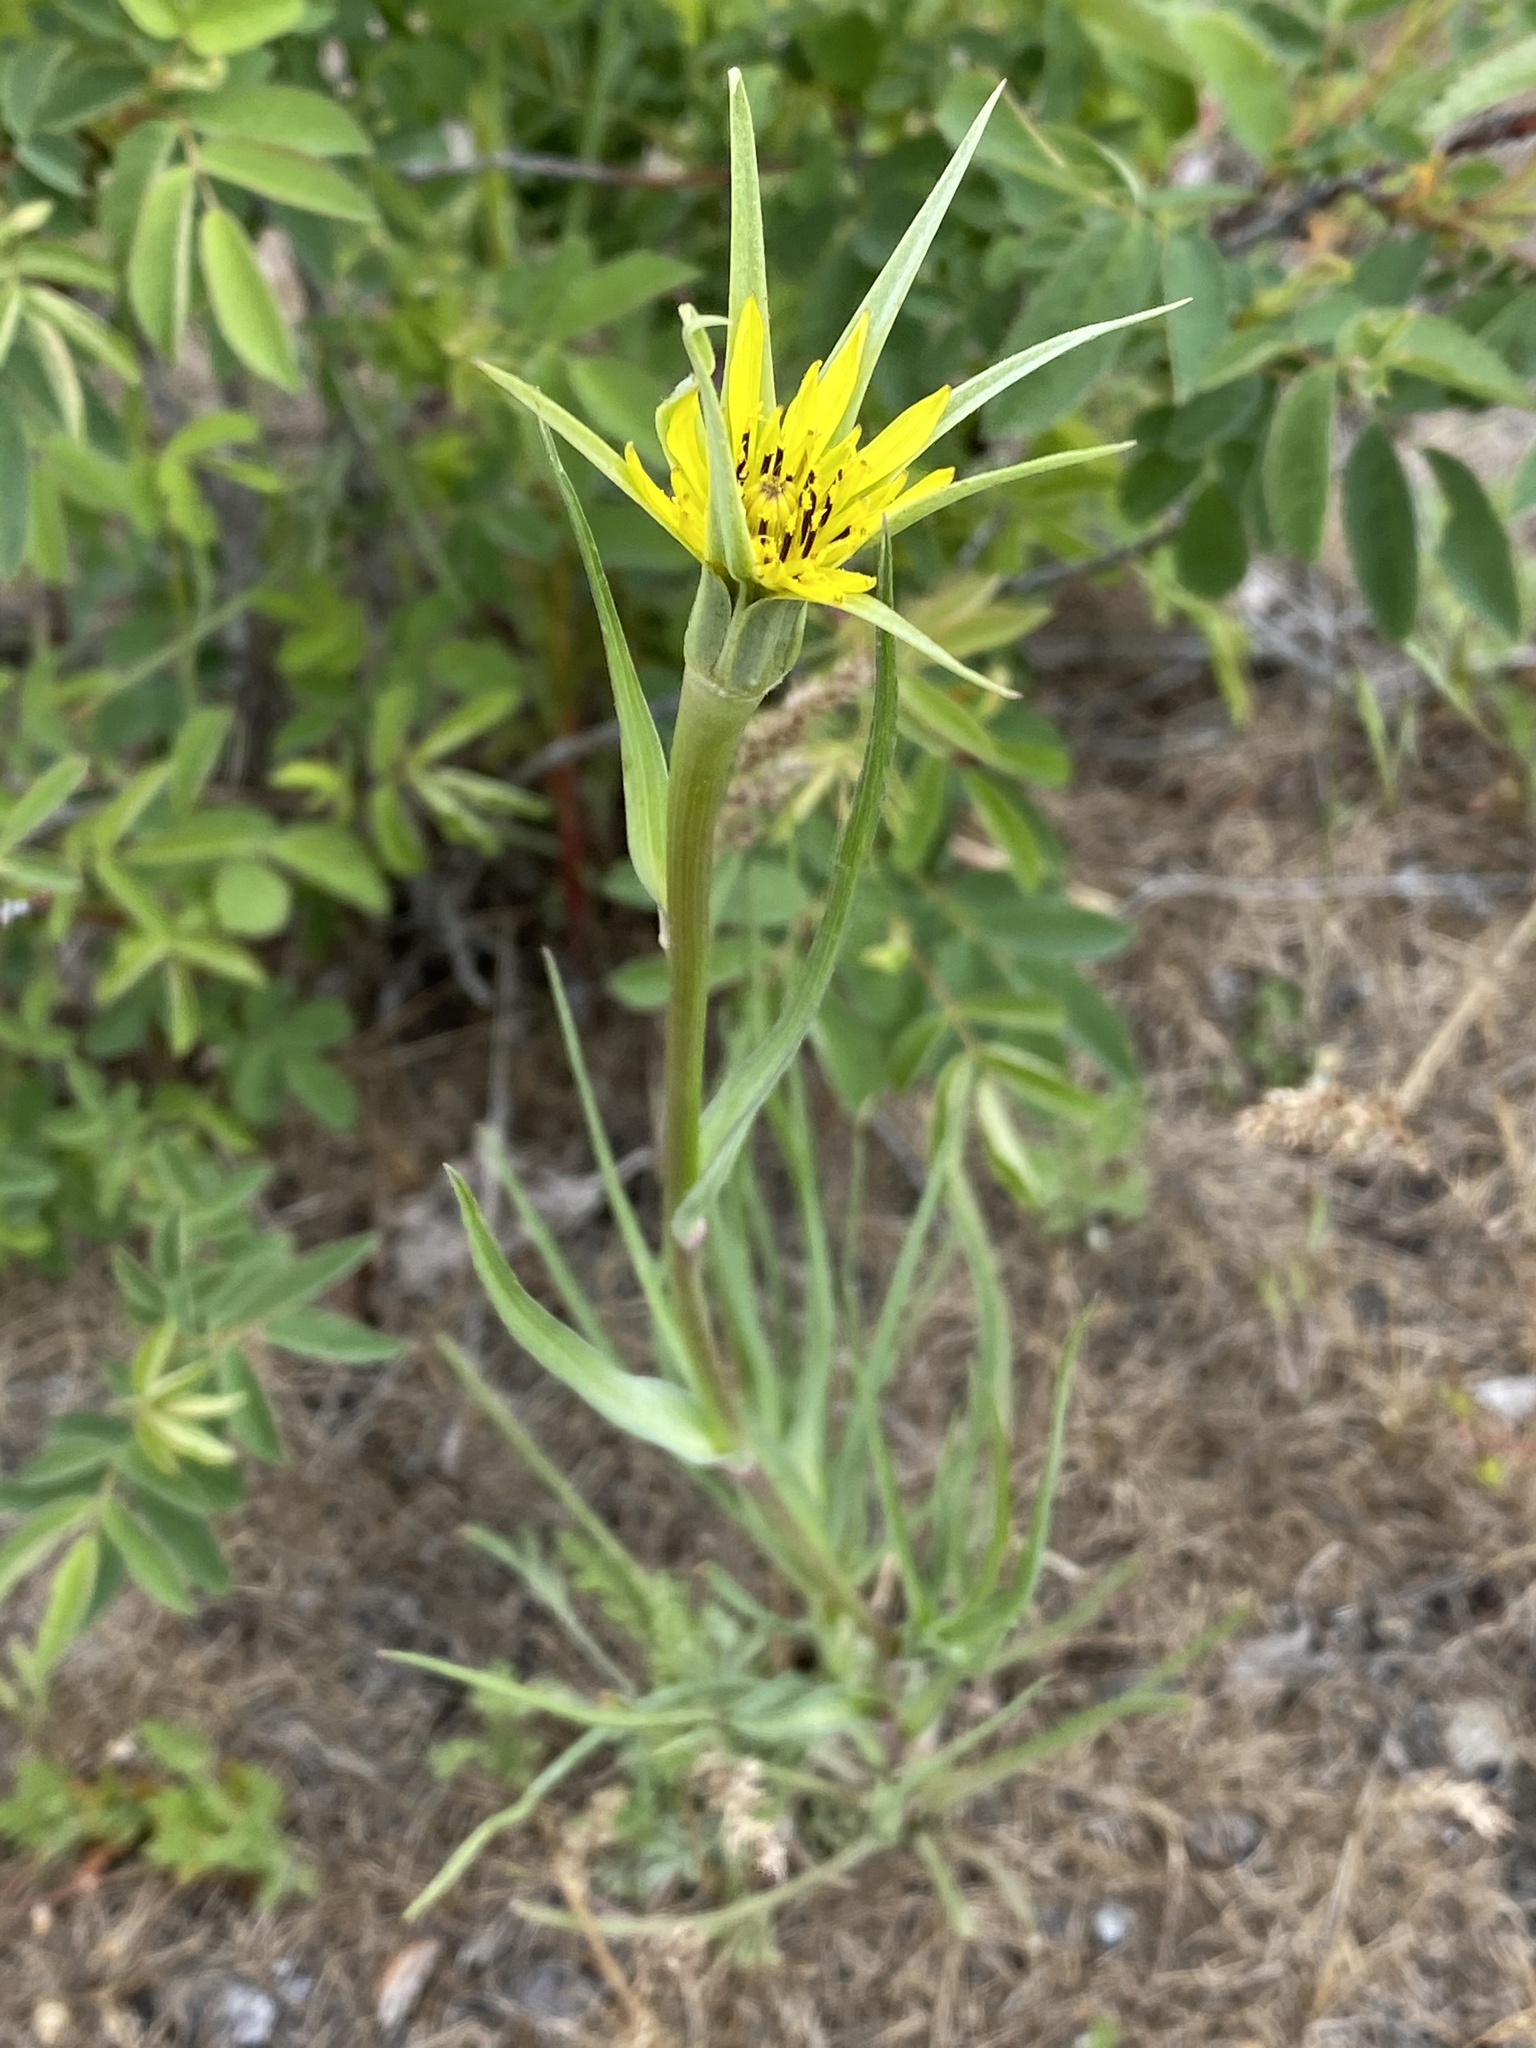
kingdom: Plantae
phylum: Tracheophyta
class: Magnoliopsida
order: Asterales
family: Asteraceae
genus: Tragopogon
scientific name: Tragopogon dubius
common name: Yellow salsify
